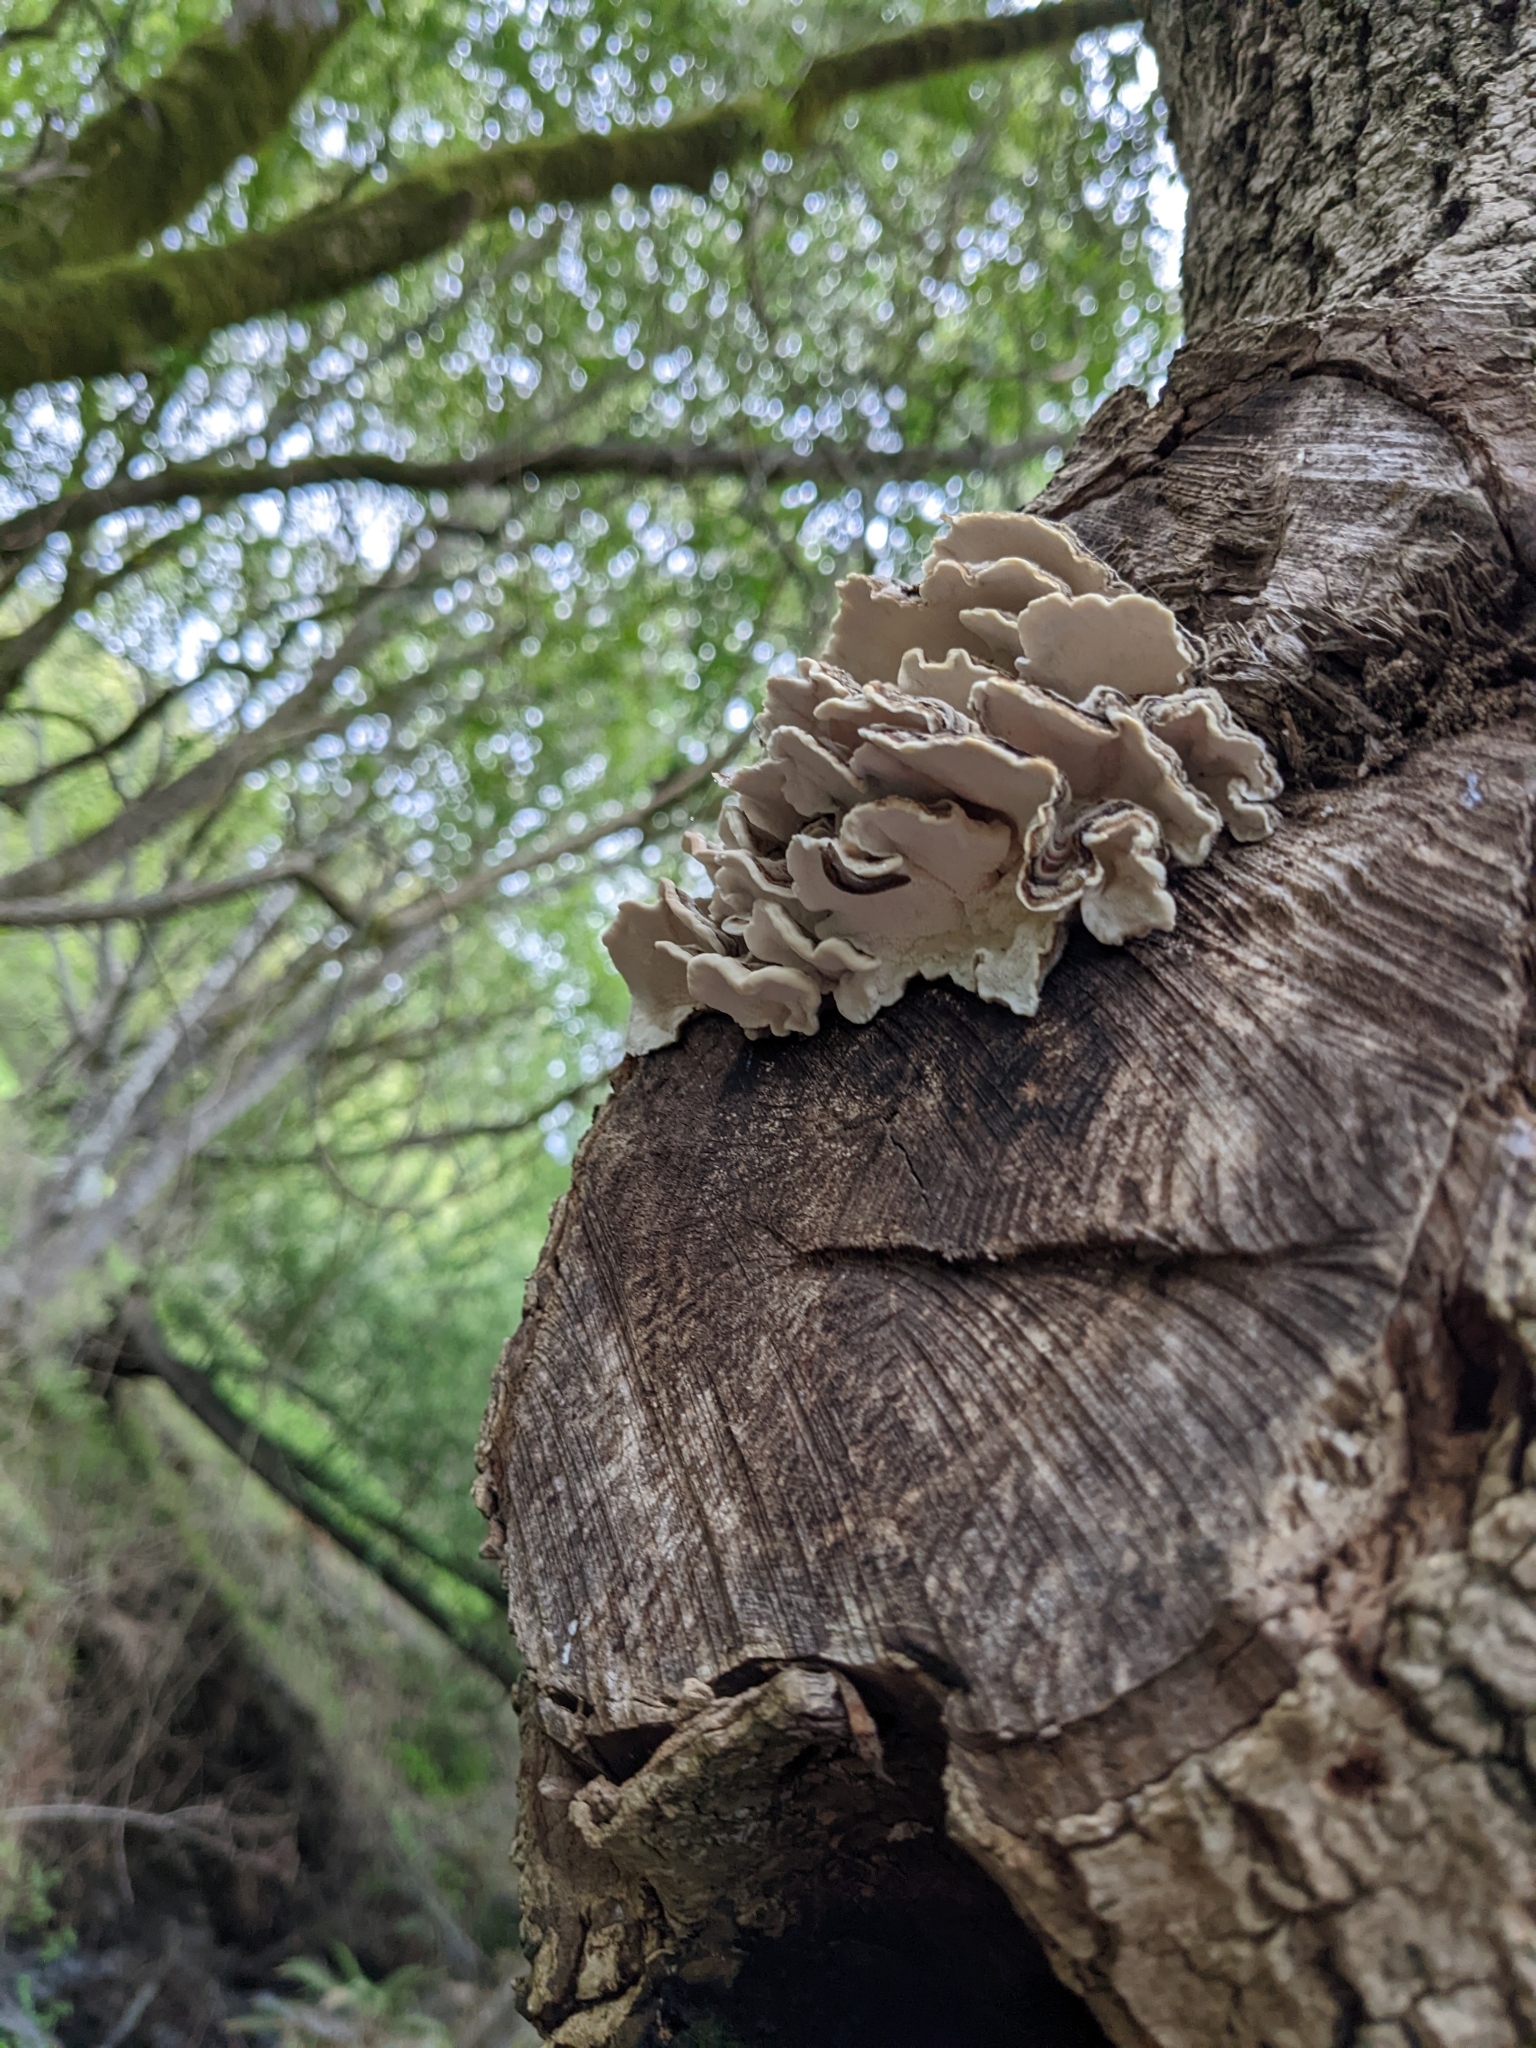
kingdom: Fungi
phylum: Basidiomycota
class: Agaricomycetes
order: Polyporales
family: Polyporaceae
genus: Trametes
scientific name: Trametes versicolor
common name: Turkeytail
